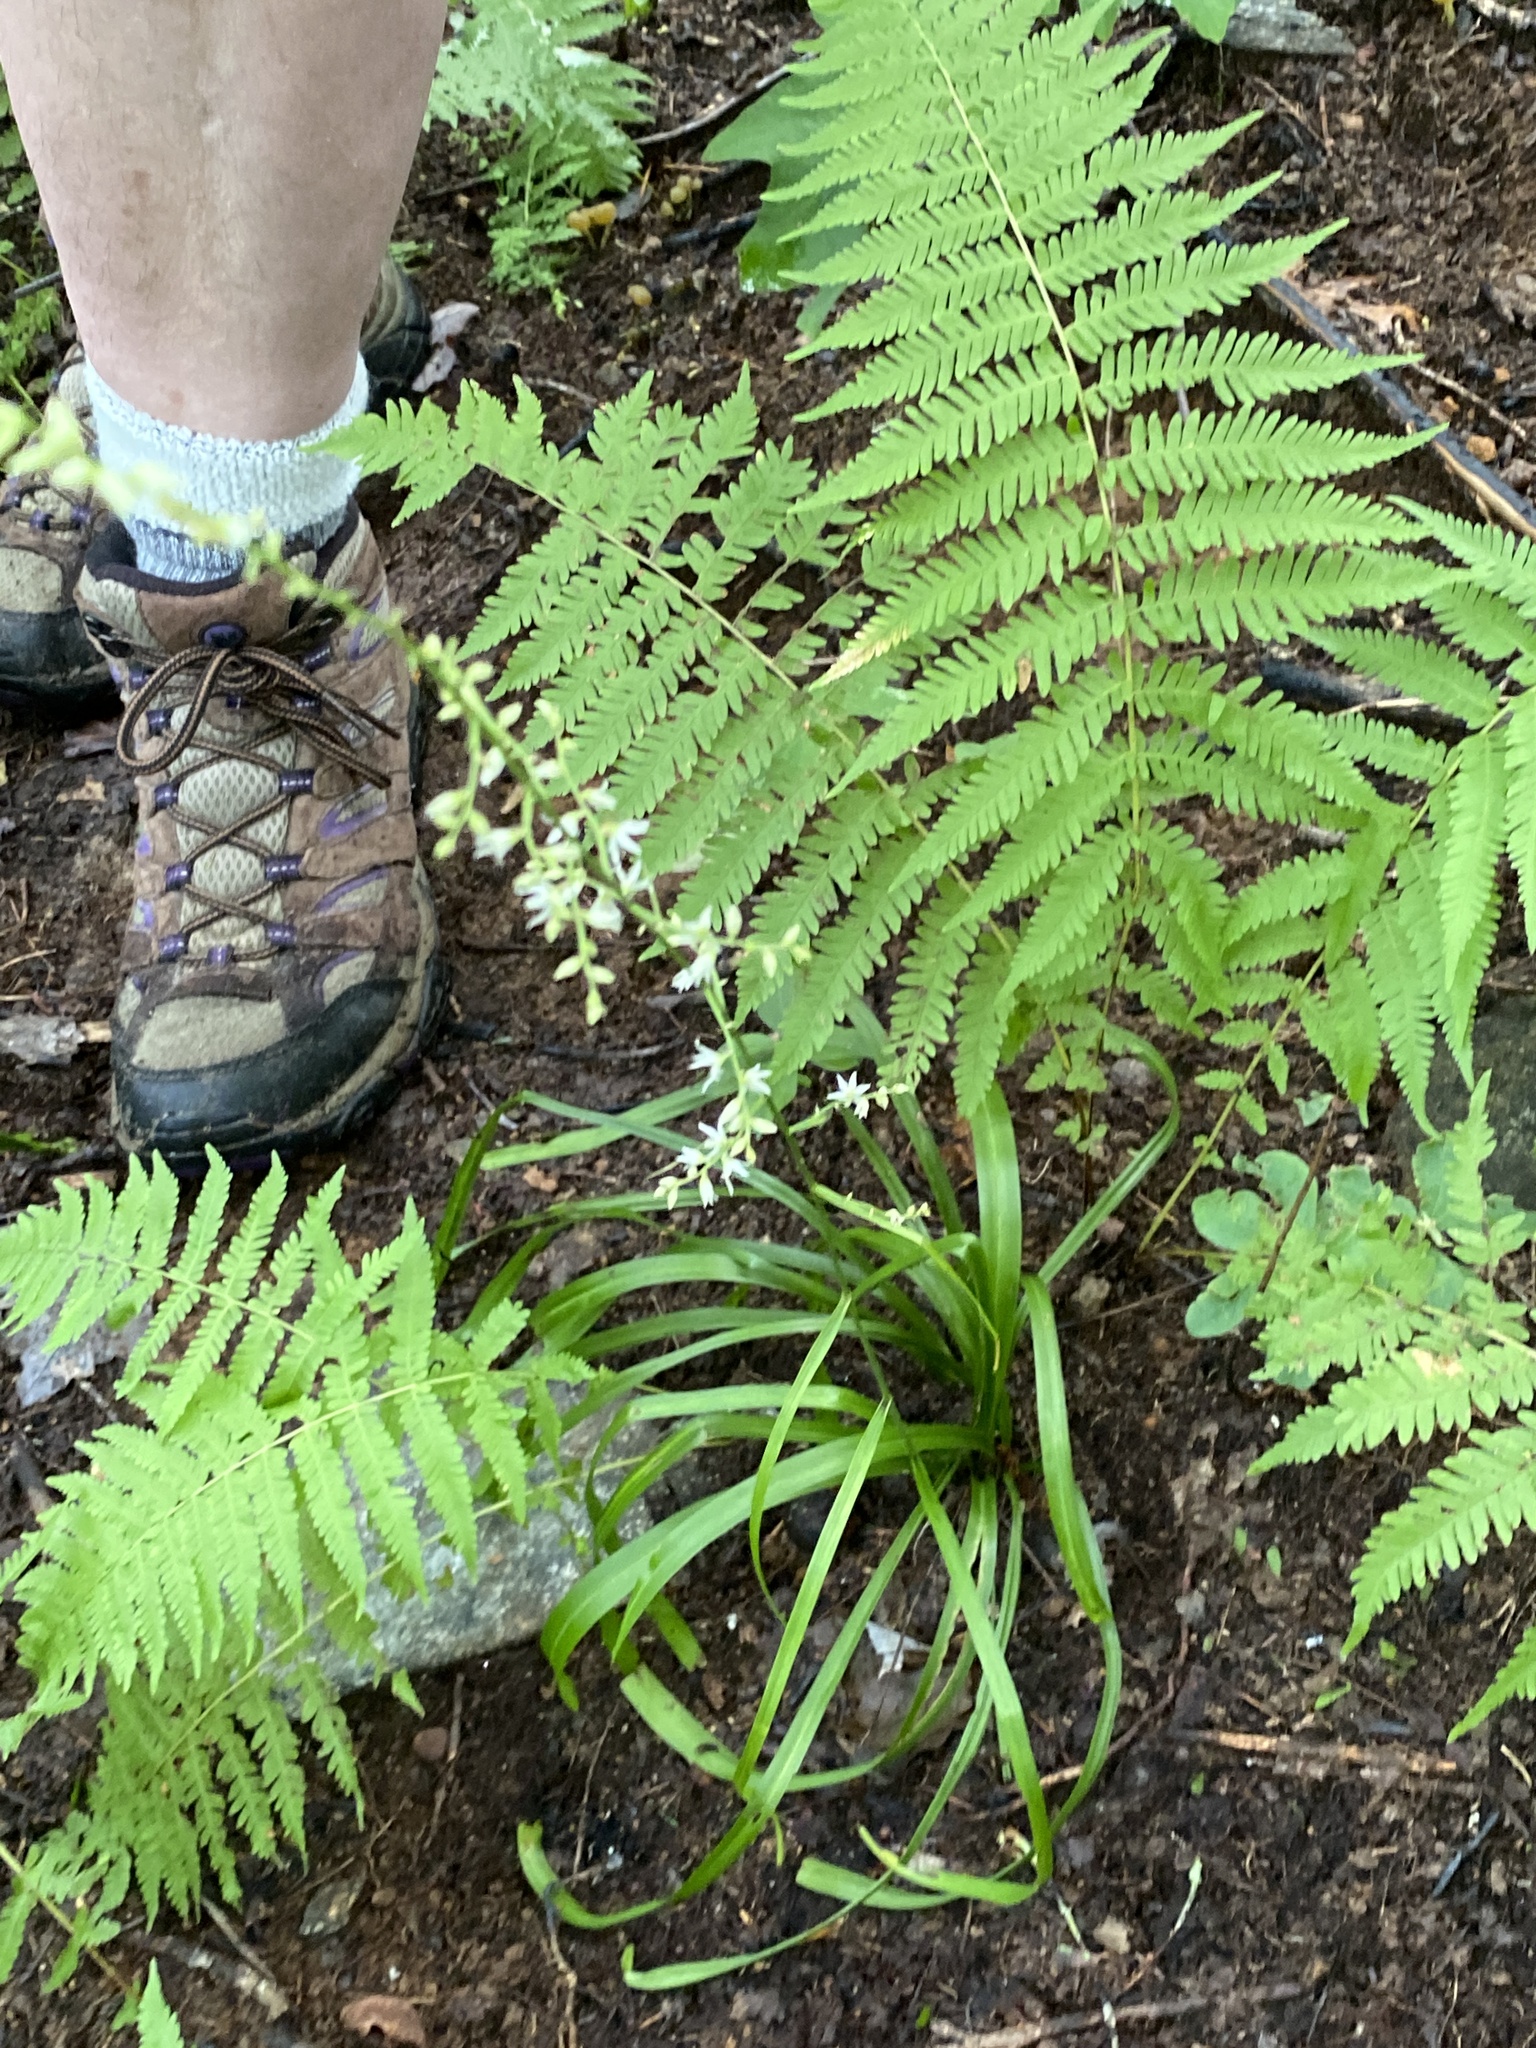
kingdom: Plantae
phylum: Tracheophyta
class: Liliopsida
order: Liliales
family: Melanthiaceae
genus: Stenanthium
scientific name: Stenanthium gramineum
